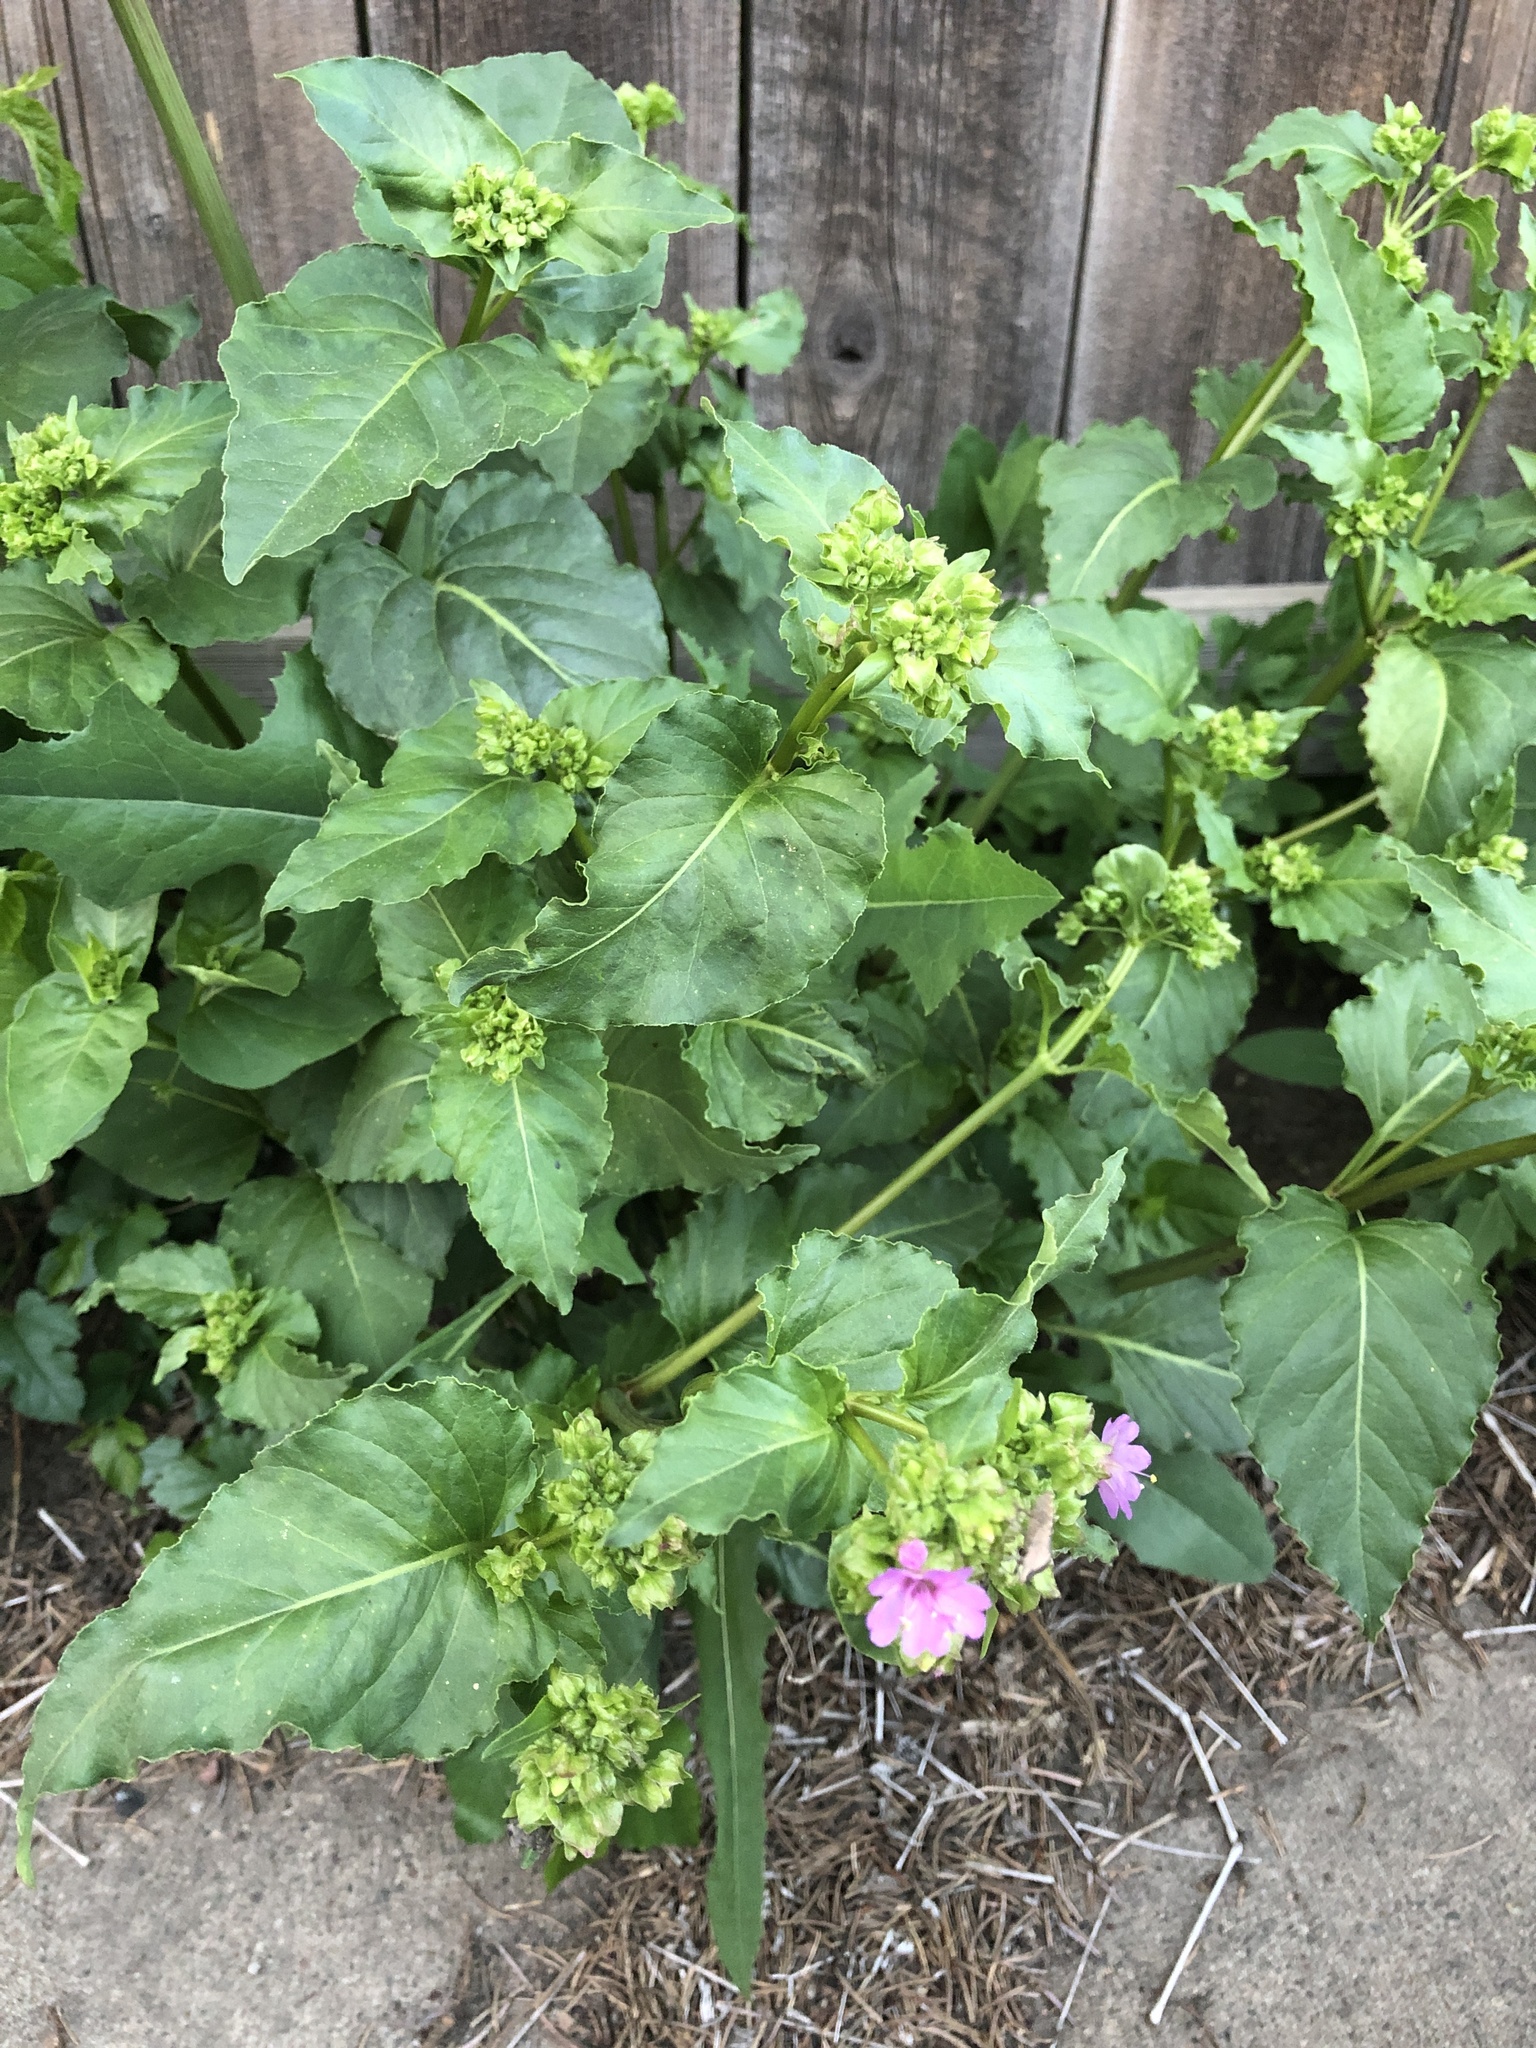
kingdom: Plantae
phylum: Tracheophyta
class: Magnoliopsida
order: Caryophyllales
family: Nyctaginaceae
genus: Mirabilis
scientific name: Mirabilis nyctaginea
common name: Umbrella wort
